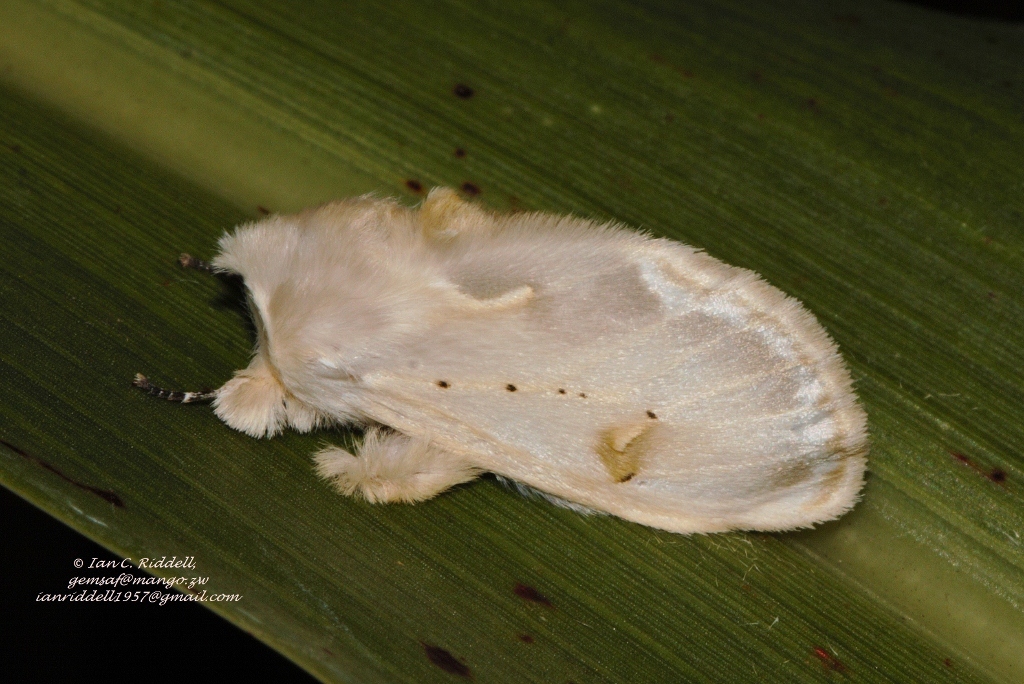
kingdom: Animalia
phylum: Arthropoda
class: Insecta
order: Lepidoptera
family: Erebidae
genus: Naroma
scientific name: Naroma varipes
